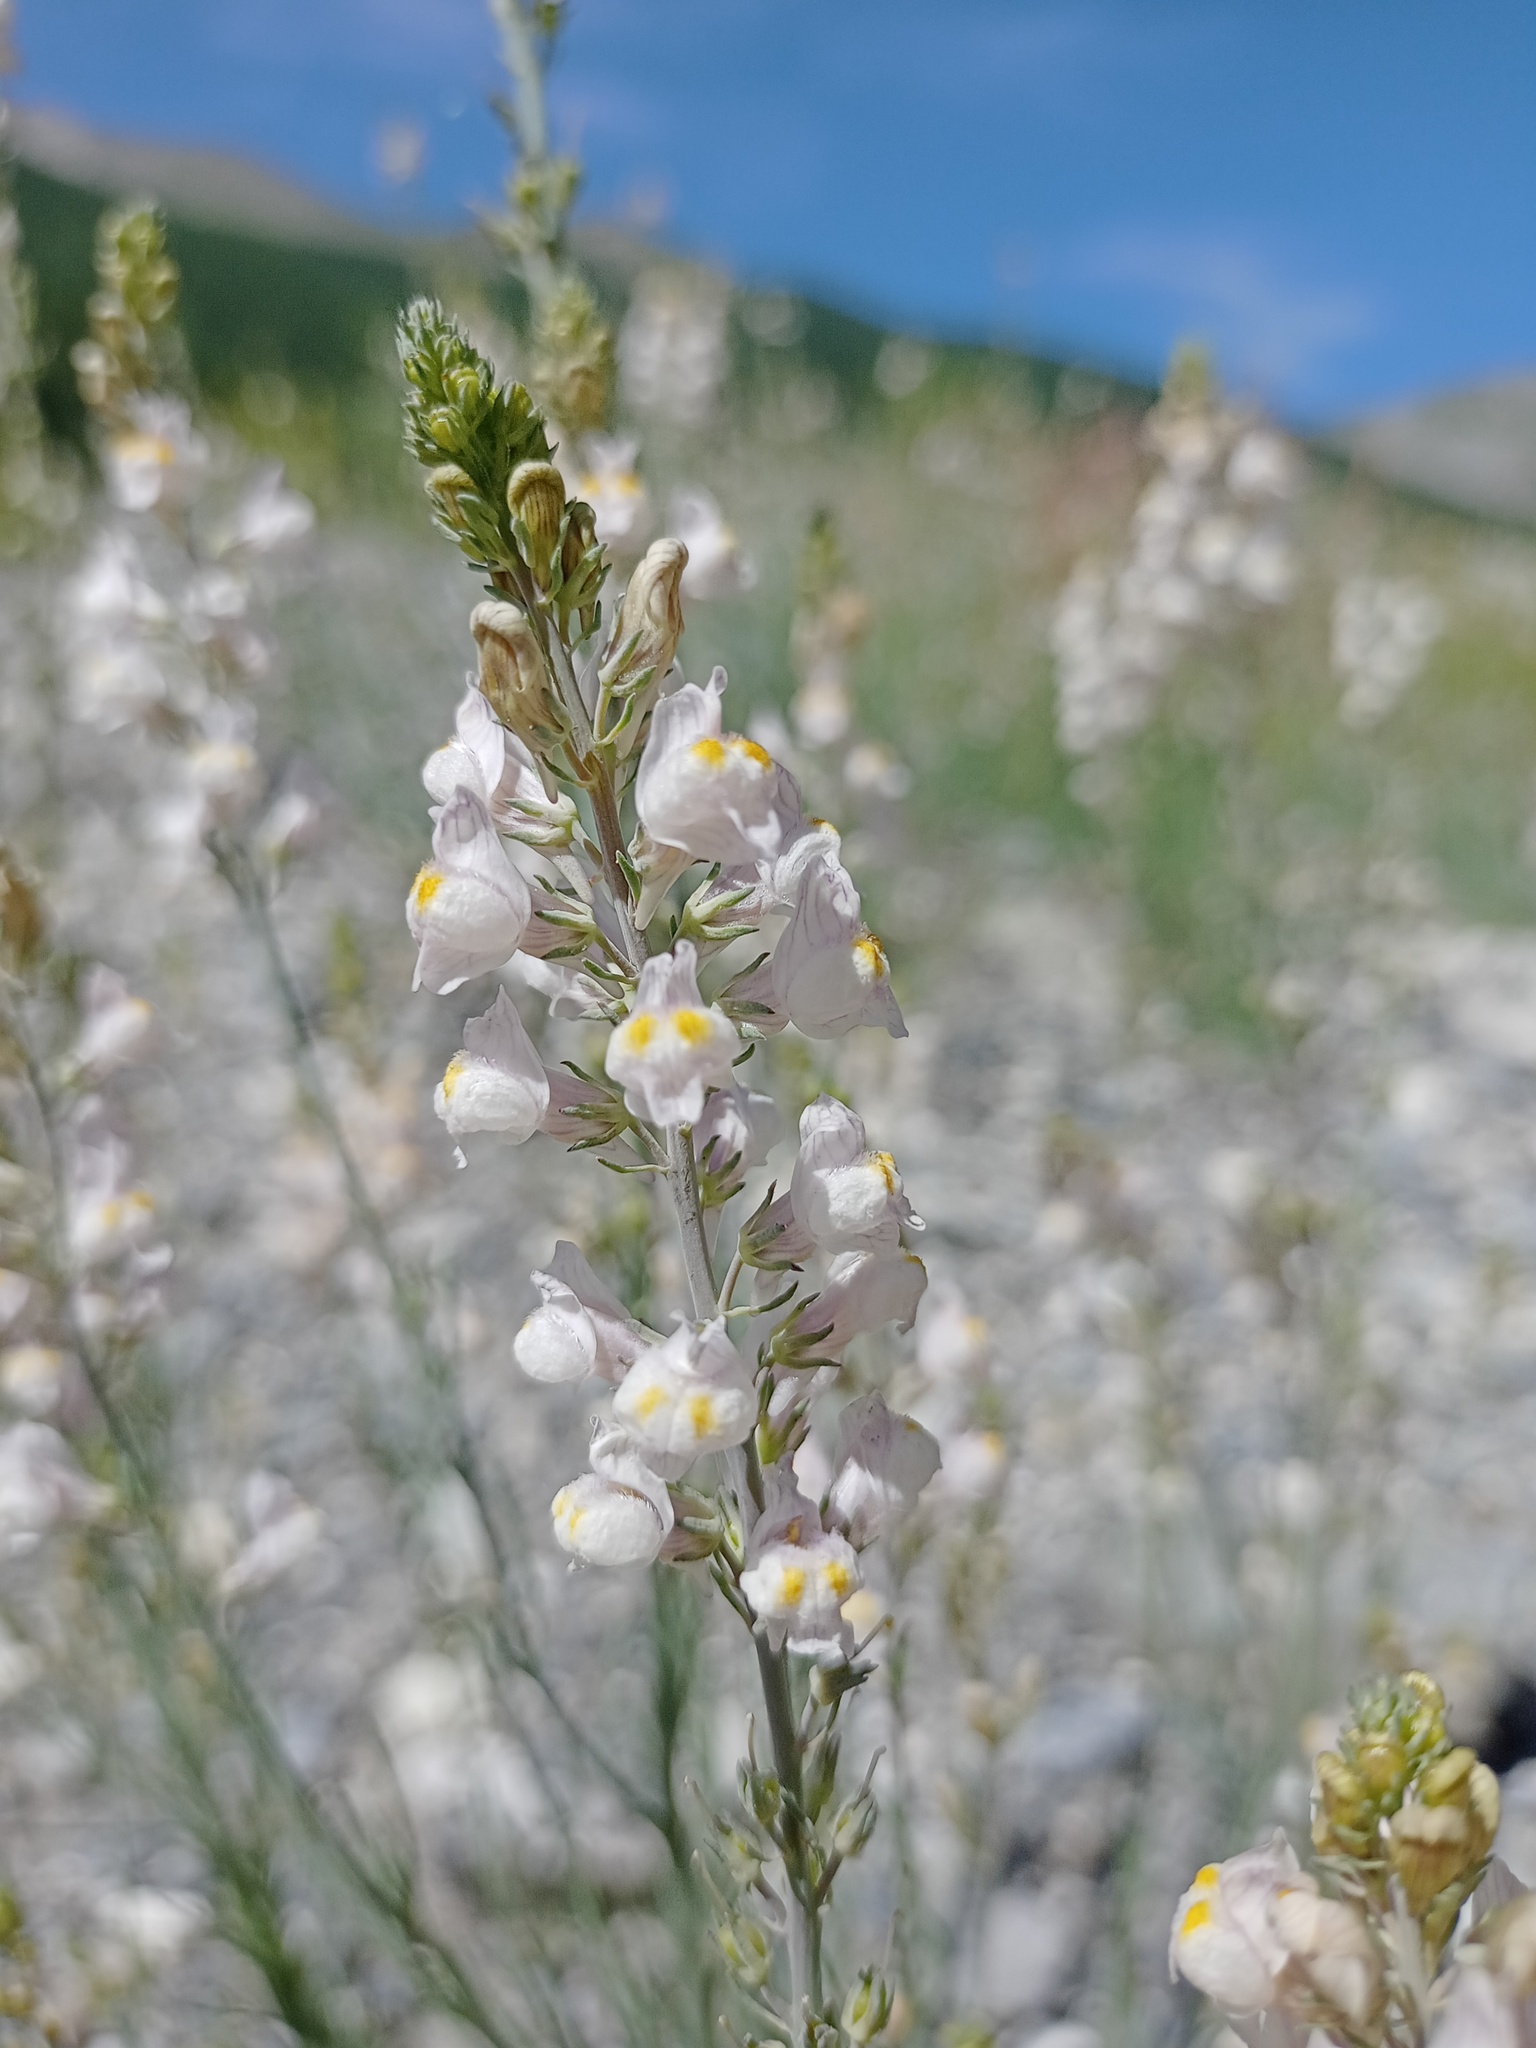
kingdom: Plantae
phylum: Tracheophyta
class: Magnoliopsida
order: Lamiales
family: Plantaginaceae
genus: Linaria
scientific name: Linaria repens
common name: Pale toadflax
